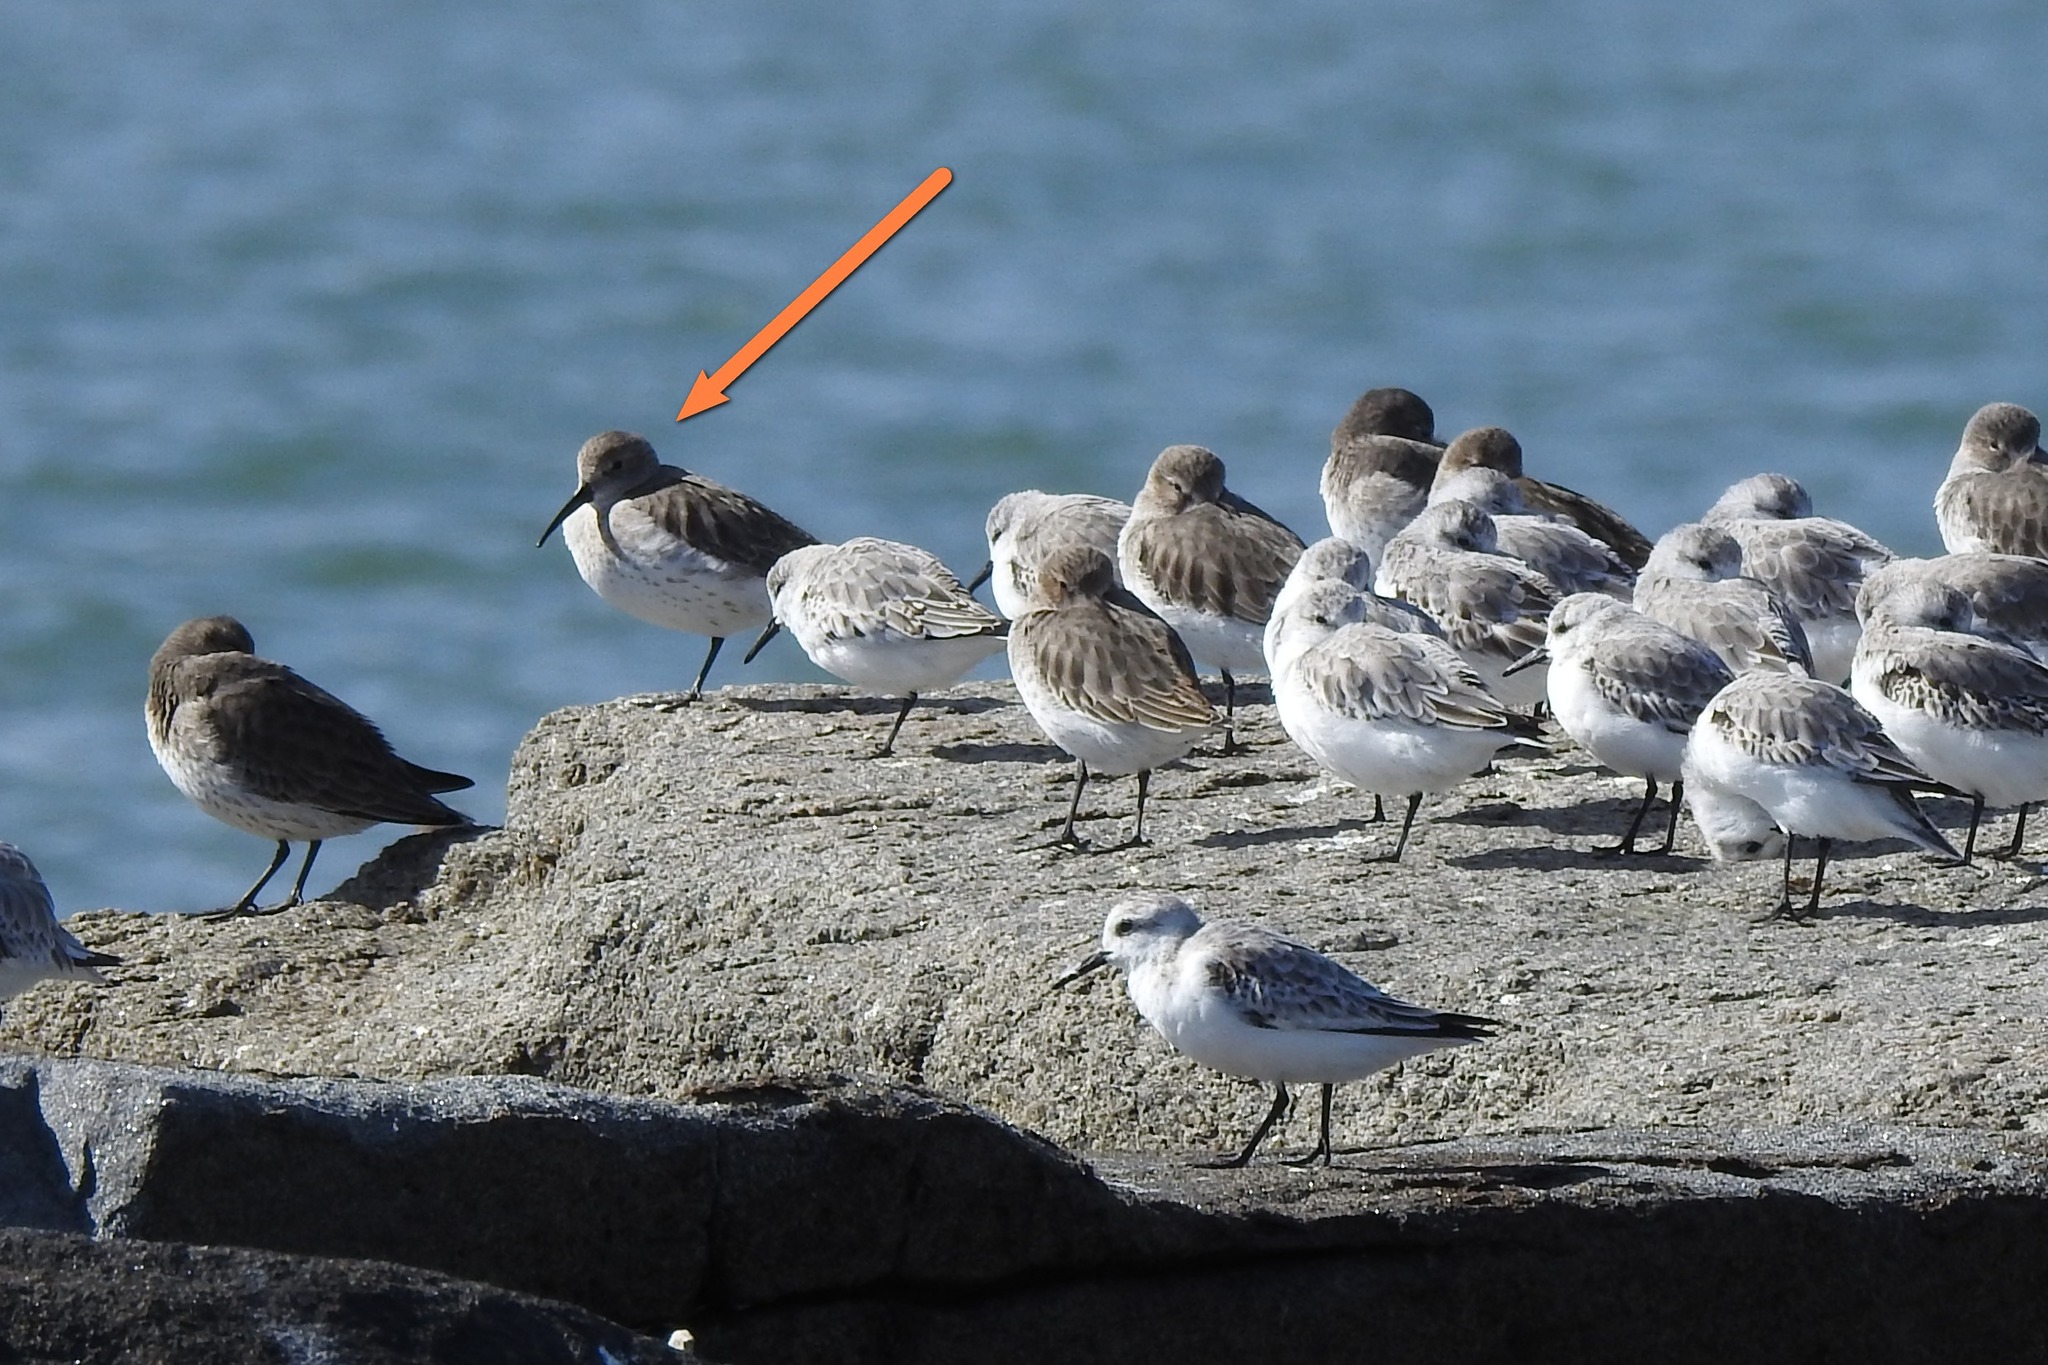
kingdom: Animalia
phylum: Chordata
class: Aves
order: Charadriiformes
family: Scolopacidae
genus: Calidris
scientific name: Calidris alpina
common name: Dunlin
